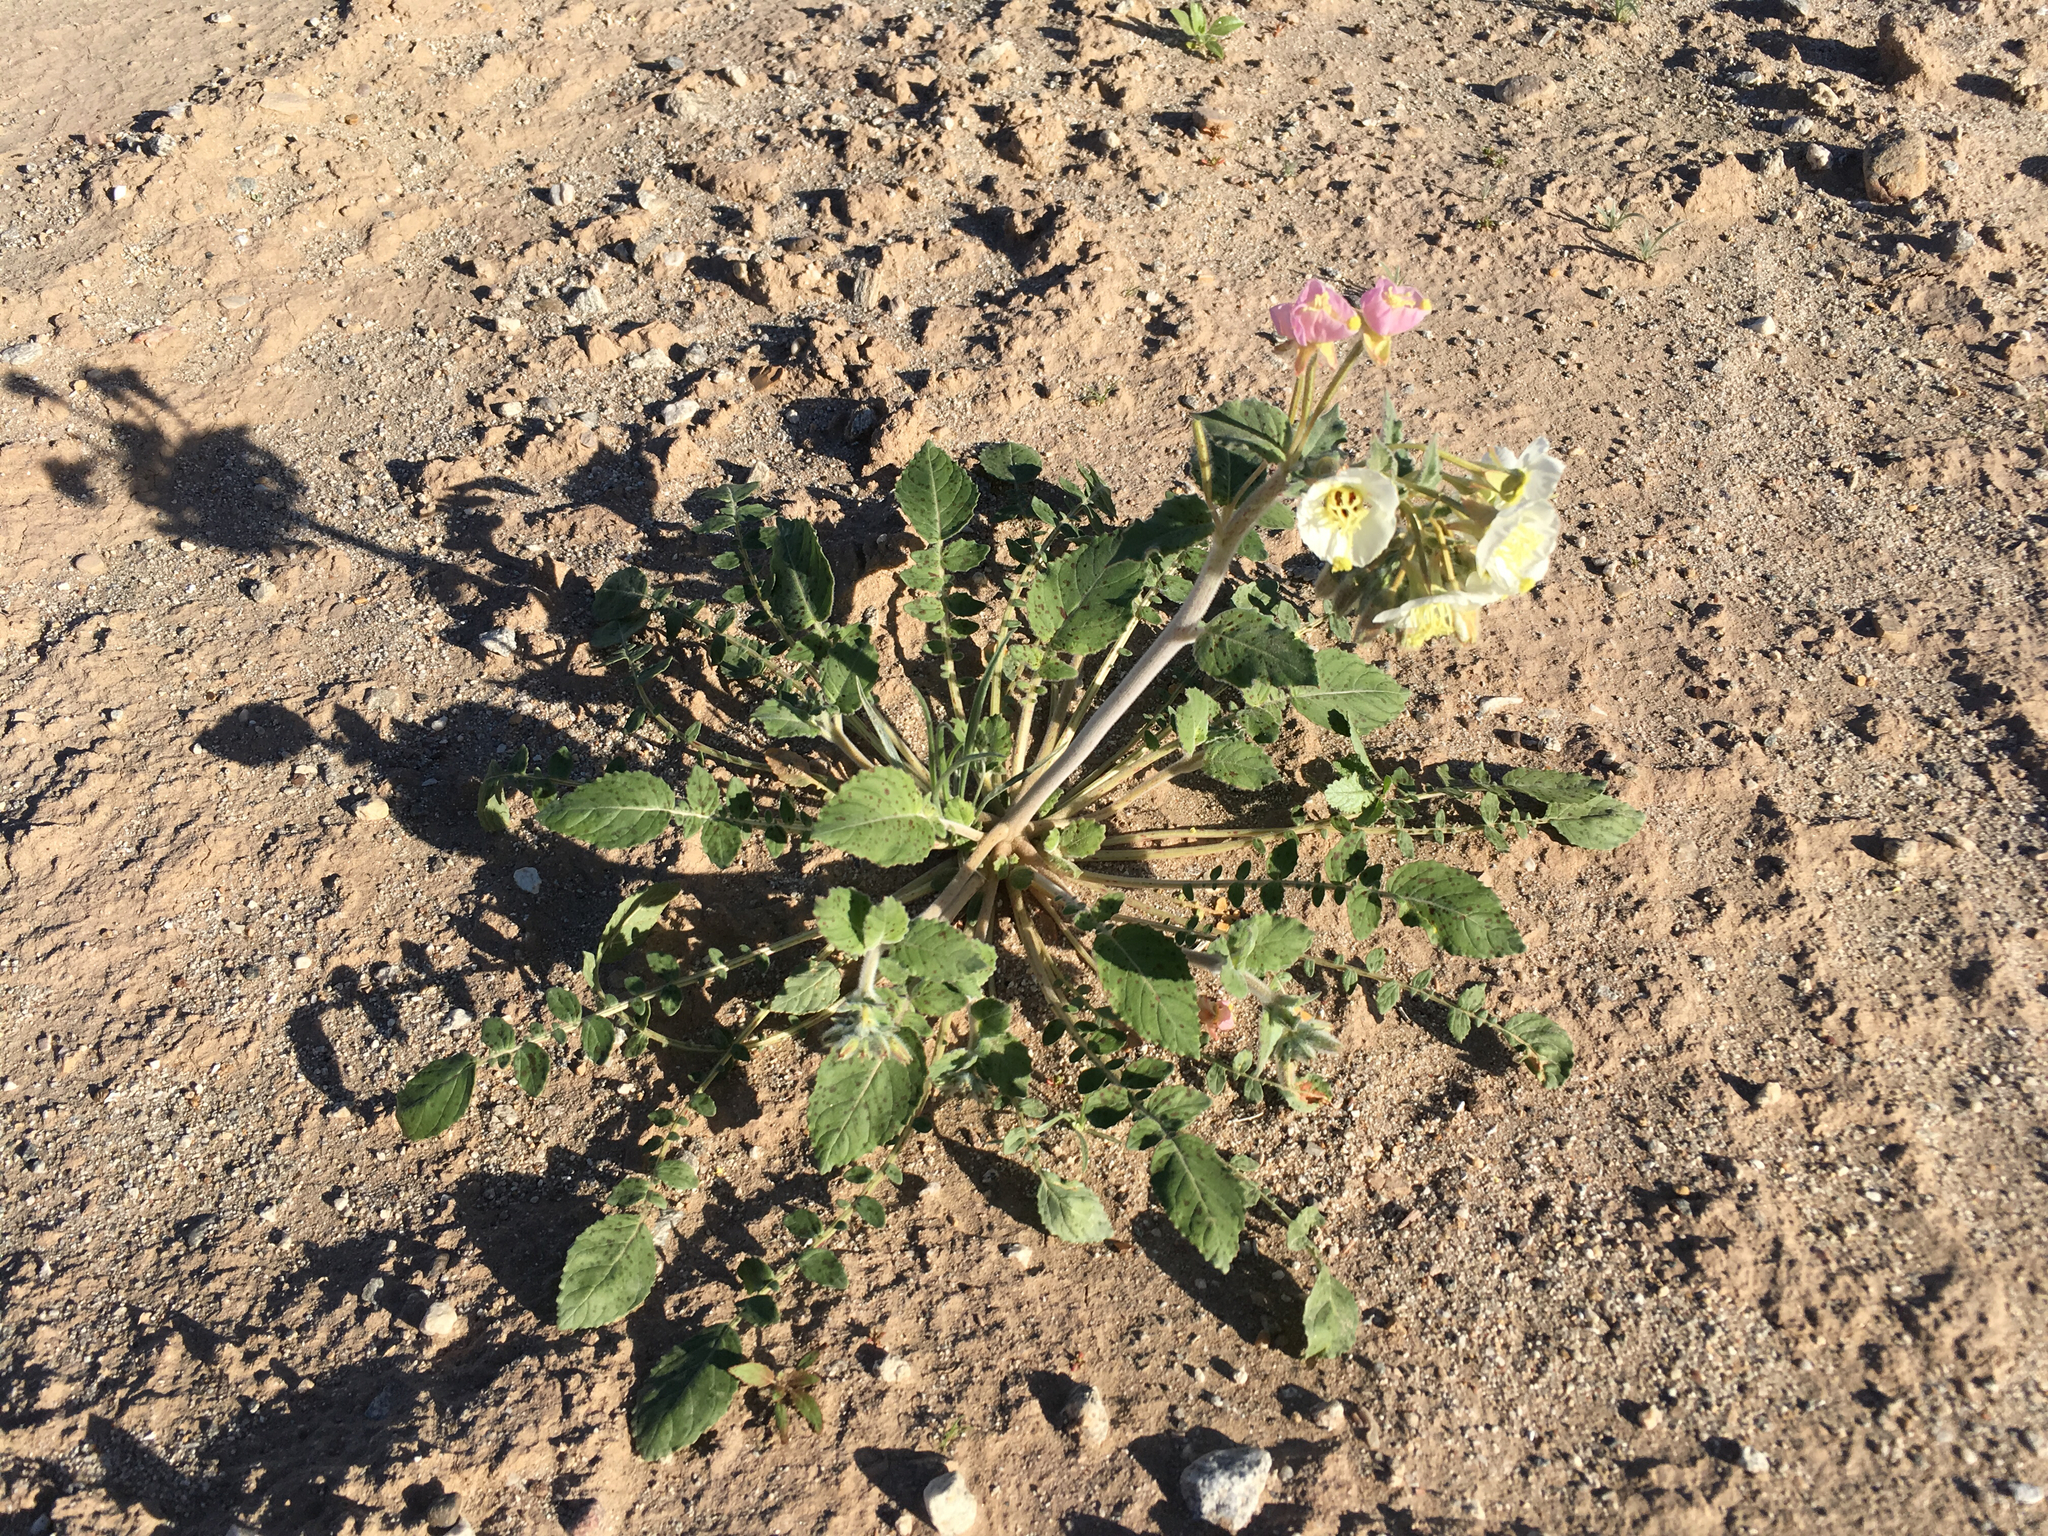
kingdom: Plantae
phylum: Tracheophyta
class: Magnoliopsida
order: Myrtales
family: Onagraceae
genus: Chylismia
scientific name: Chylismia claviformis
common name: Browneyes
